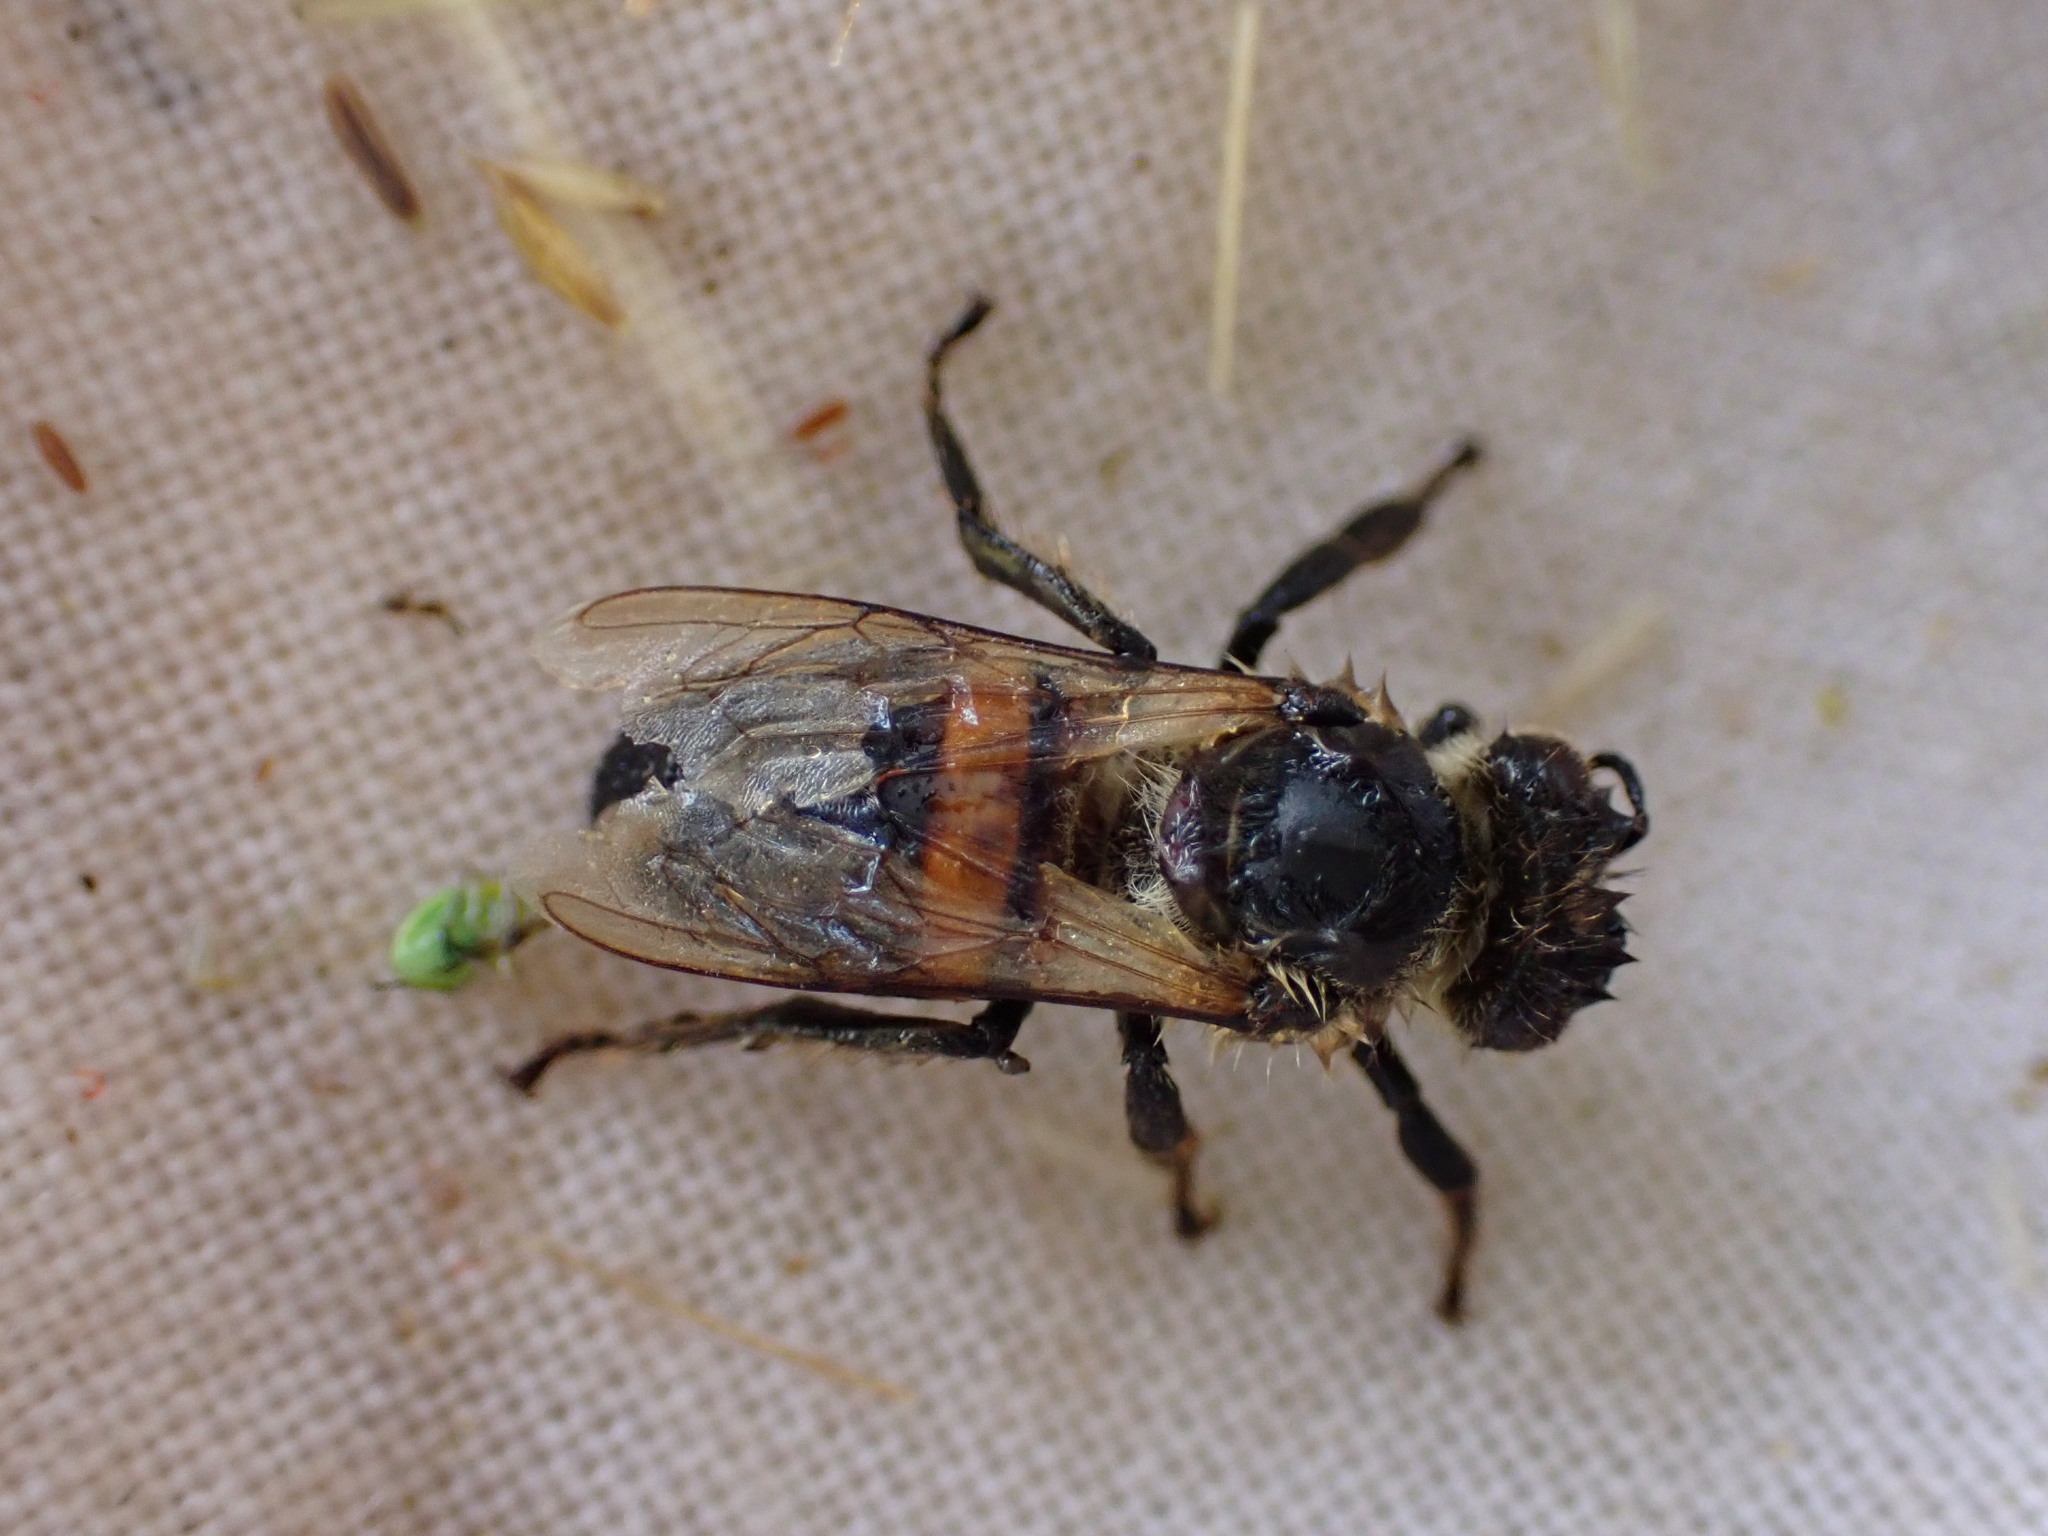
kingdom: Animalia
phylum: Arthropoda
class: Insecta
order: Hymenoptera
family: Apidae
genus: Apis
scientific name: Apis mellifera
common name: Honey bee
